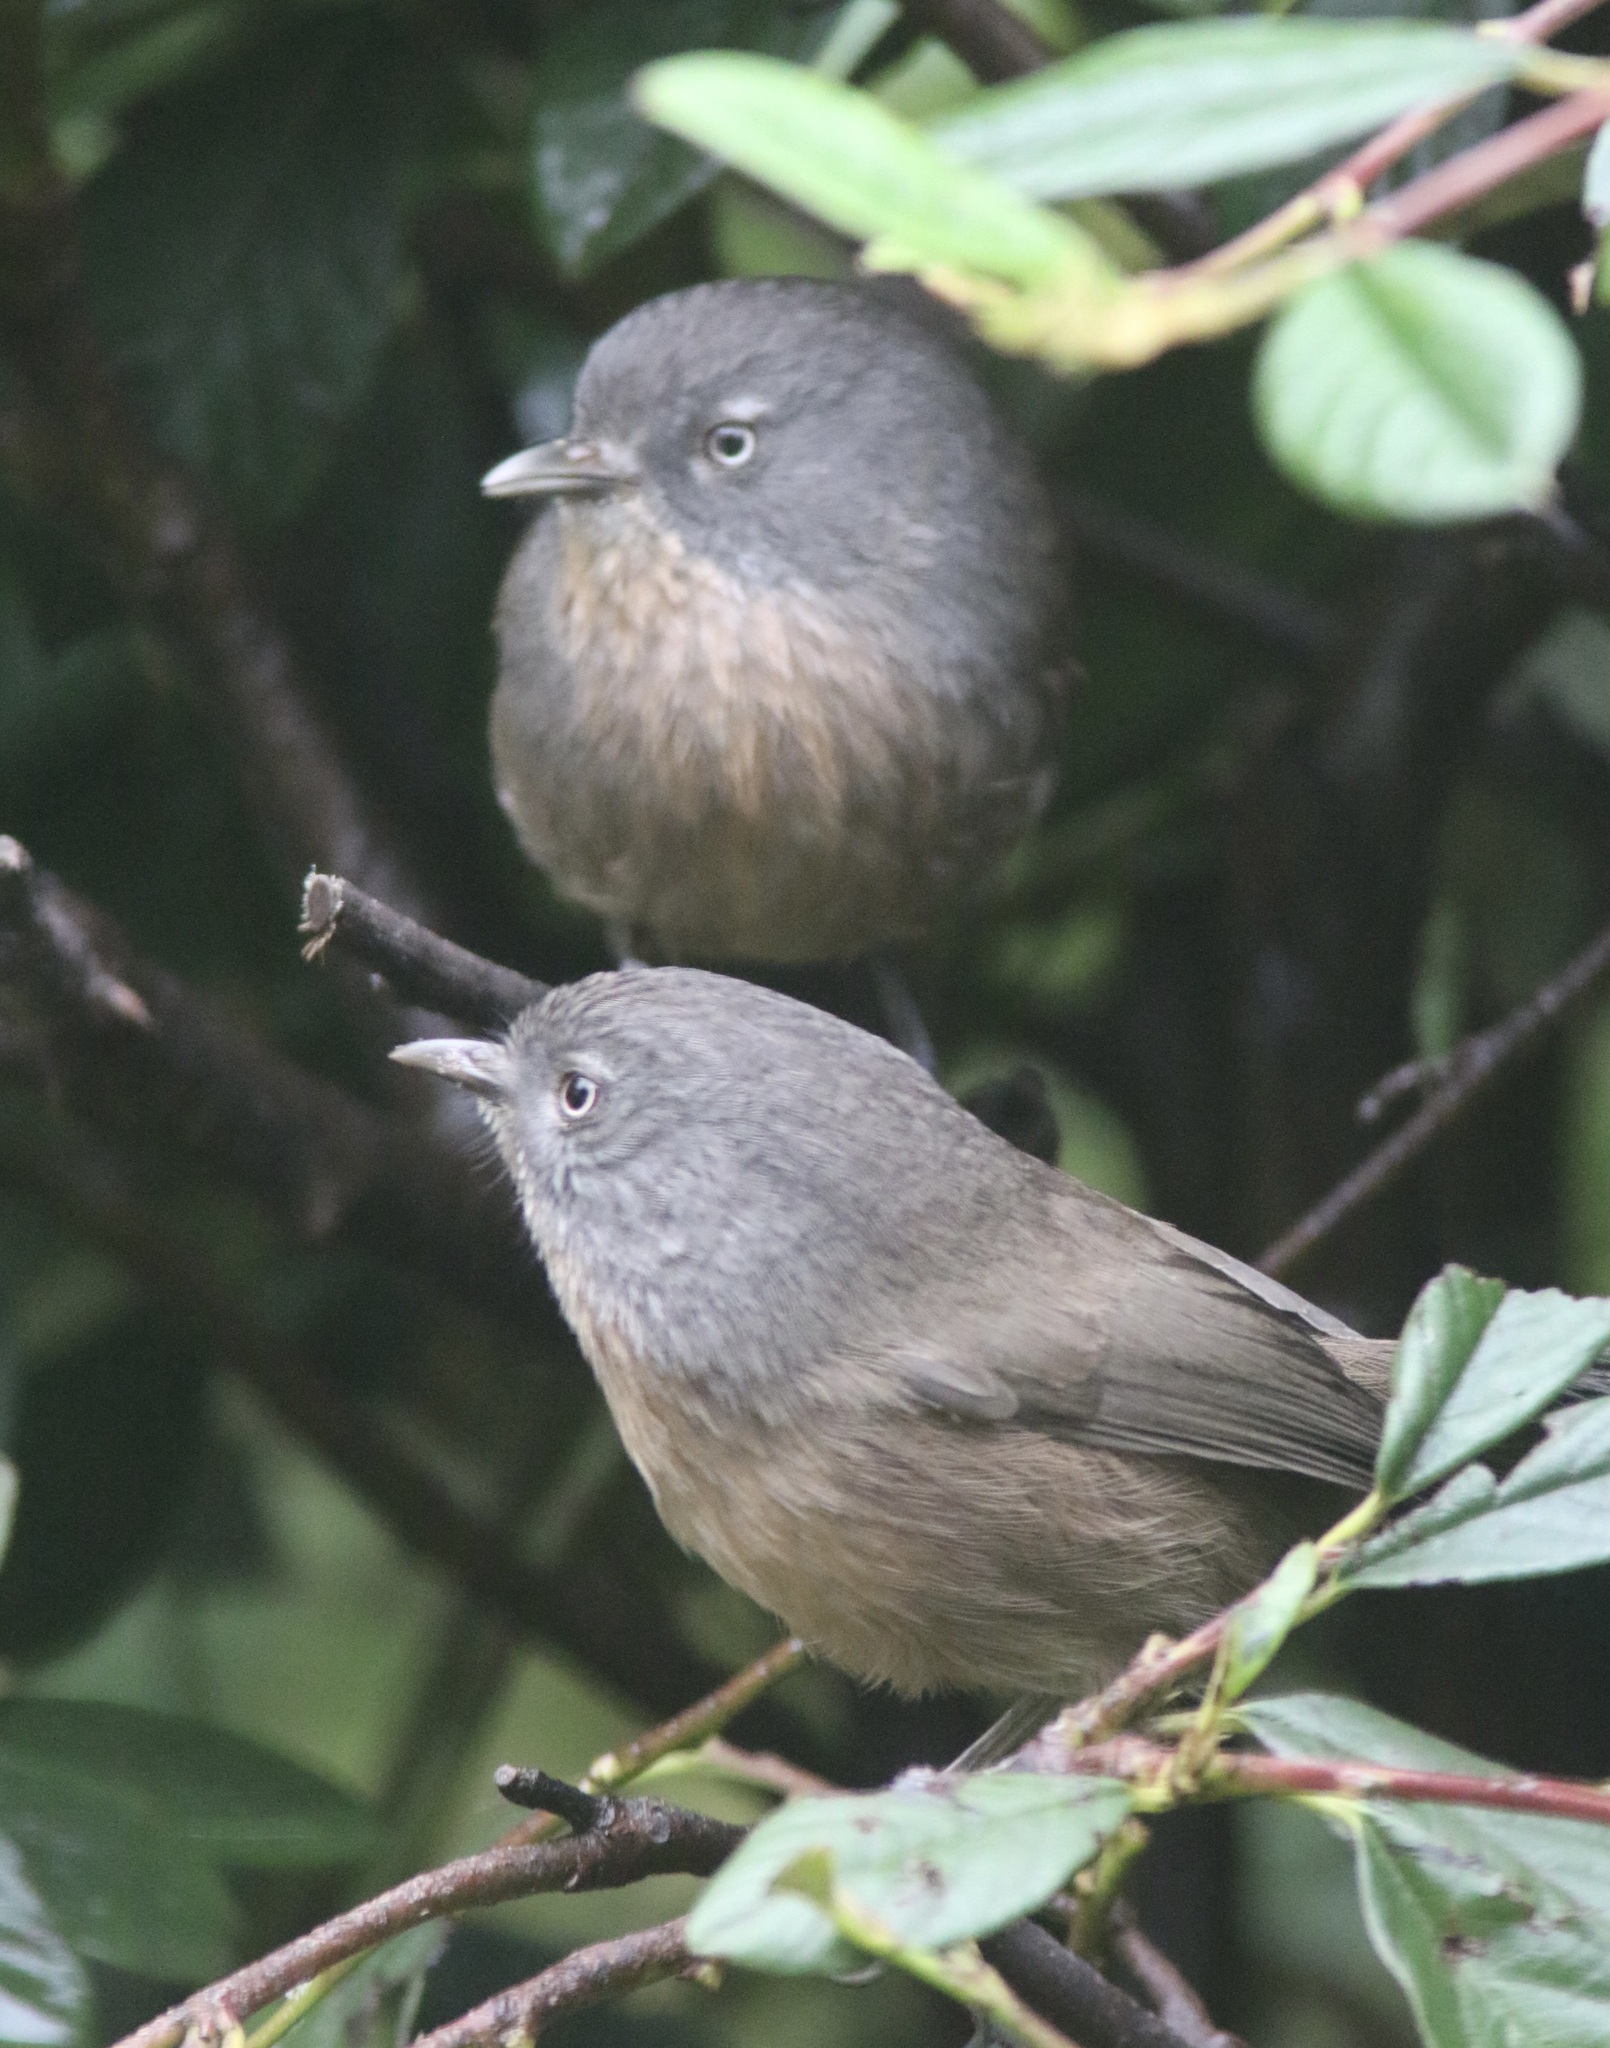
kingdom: Animalia
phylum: Chordata
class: Aves
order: Passeriformes
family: Sylviidae
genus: Chamaea
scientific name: Chamaea fasciata
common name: Wrentit
